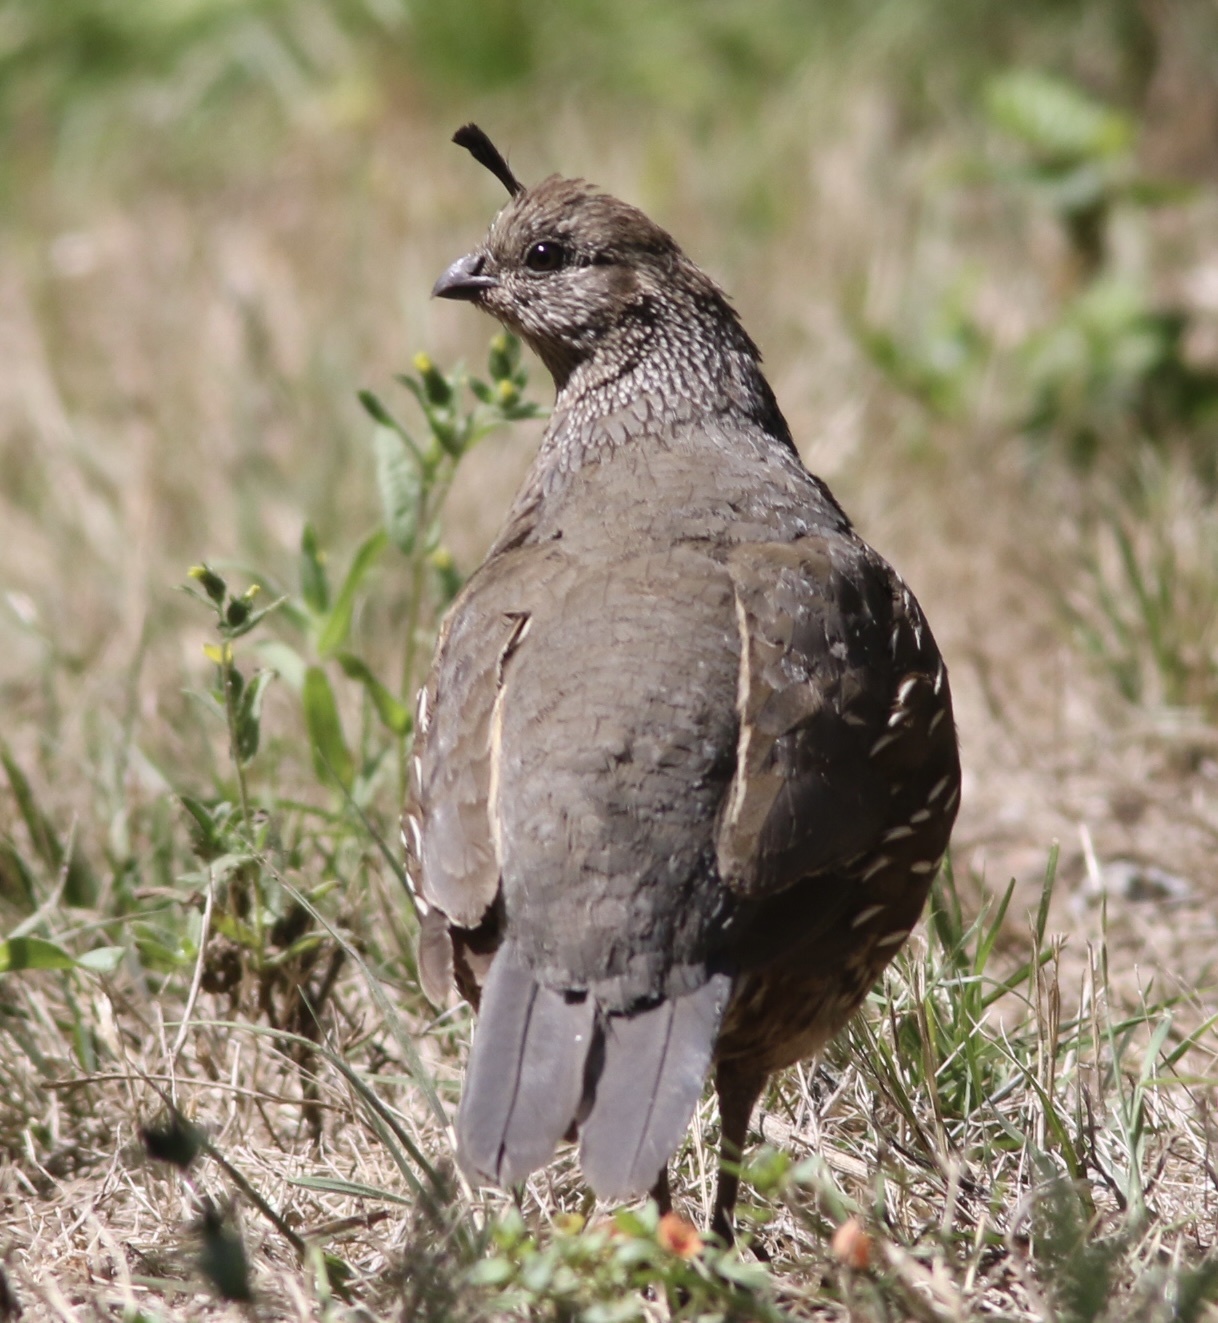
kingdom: Animalia
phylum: Chordata
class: Aves
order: Galliformes
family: Odontophoridae
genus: Callipepla
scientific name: Callipepla californica
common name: California quail
